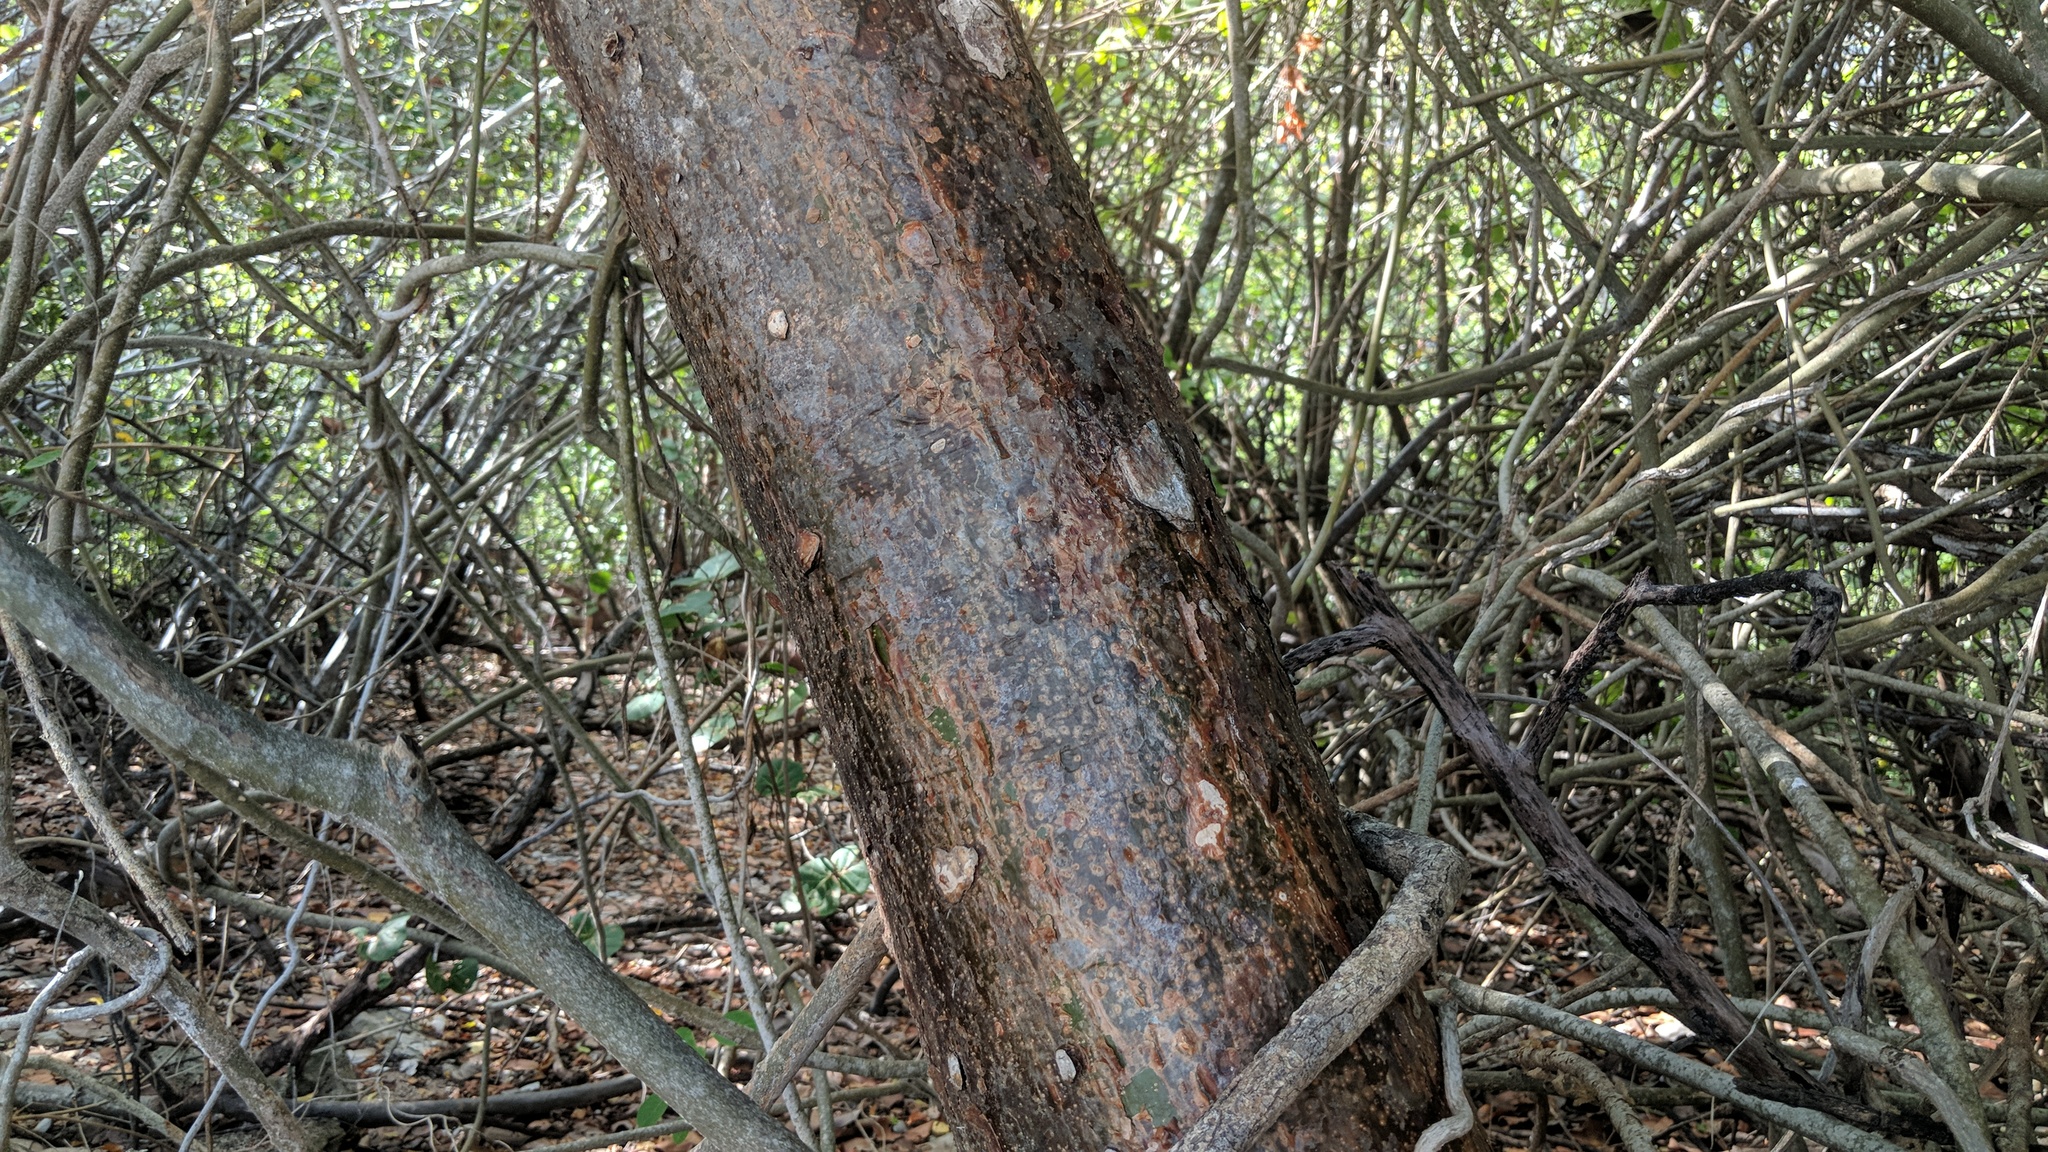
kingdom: Plantae
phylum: Tracheophyta
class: Magnoliopsida
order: Sapindales
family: Burseraceae
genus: Bursera
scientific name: Bursera simaruba
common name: Turpentine tree
